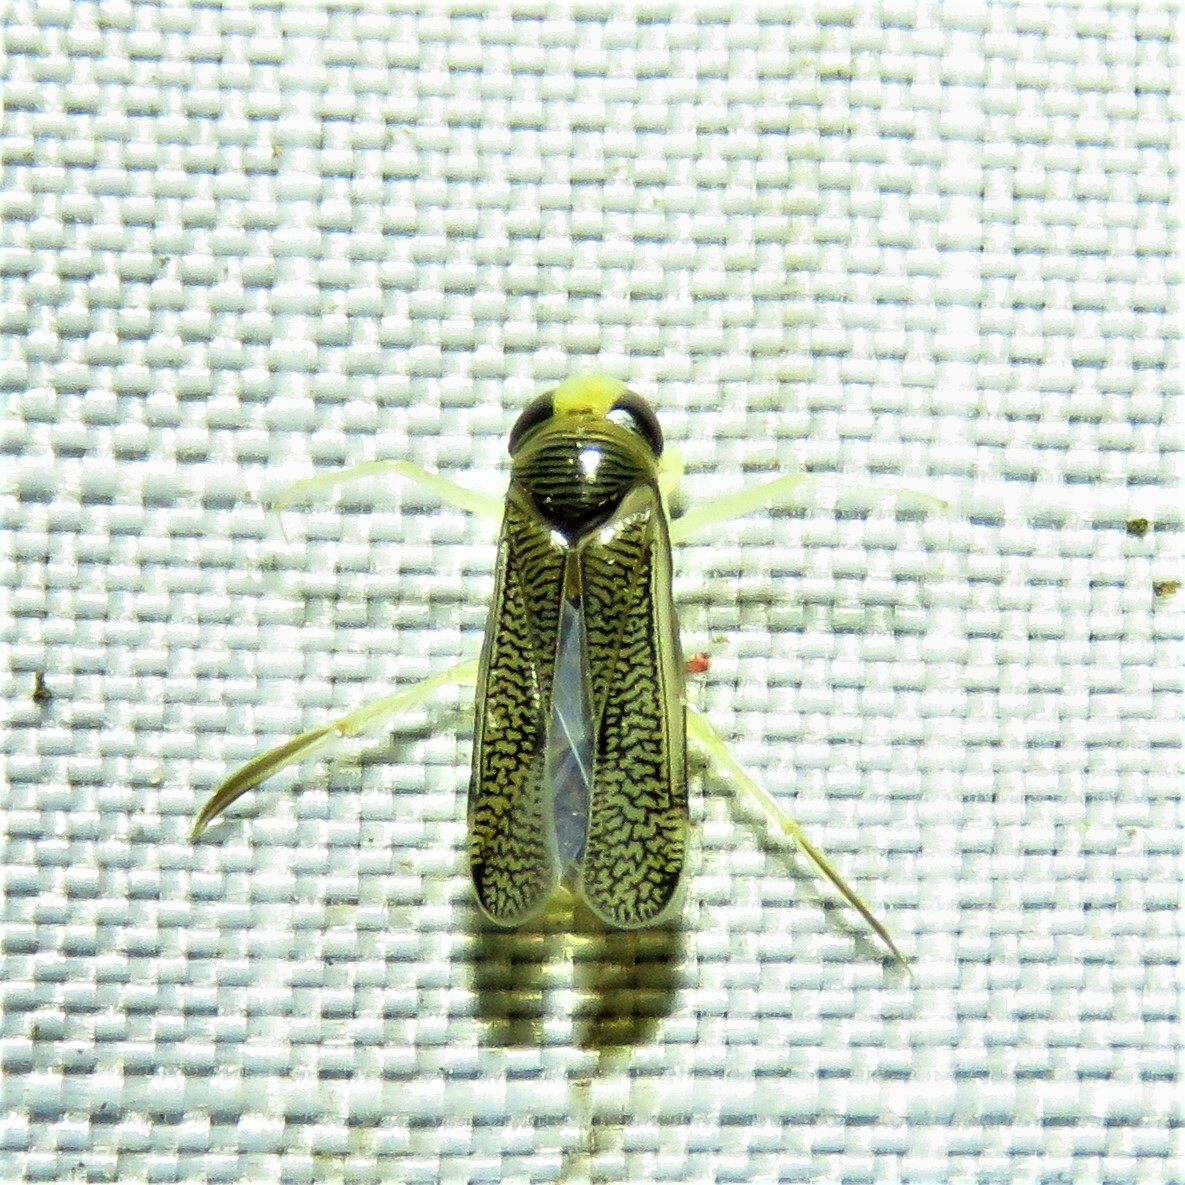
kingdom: Animalia
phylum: Arthropoda
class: Insecta
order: Hemiptera
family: Corixidae
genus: Trichocorixa
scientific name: Trichocorixa
